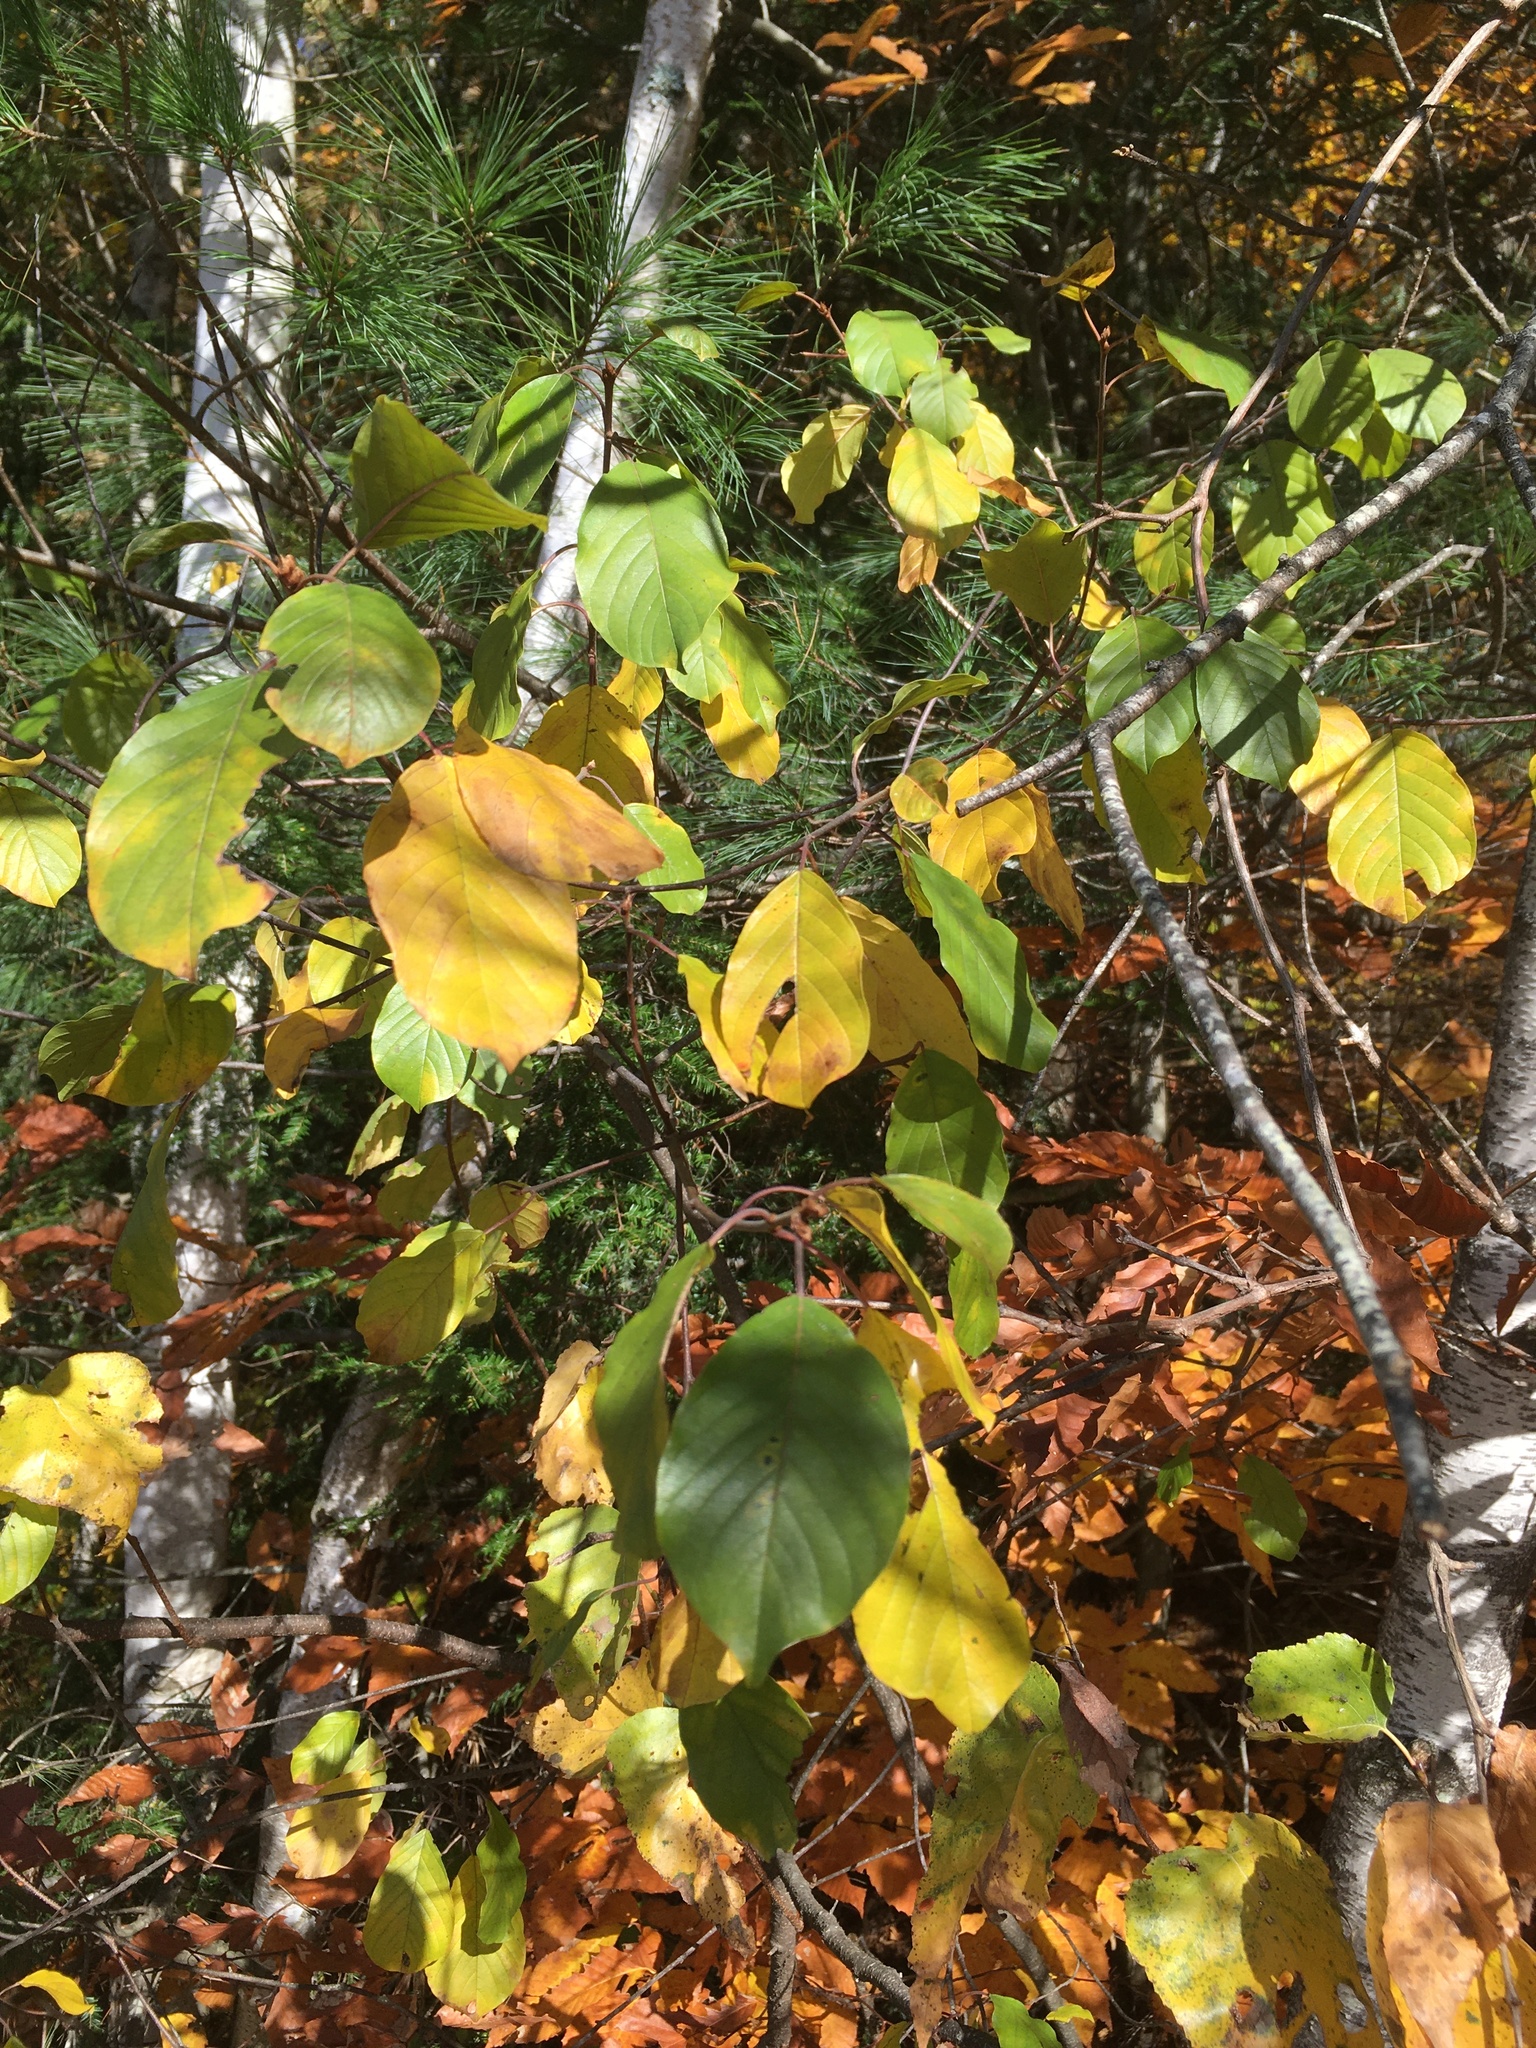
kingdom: Plantae
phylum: Tracheophyta
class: Magnoliopsida
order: Rosales
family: Rhamnaceae
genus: Frangula
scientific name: Frangula alnus
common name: Alder buckthorn
